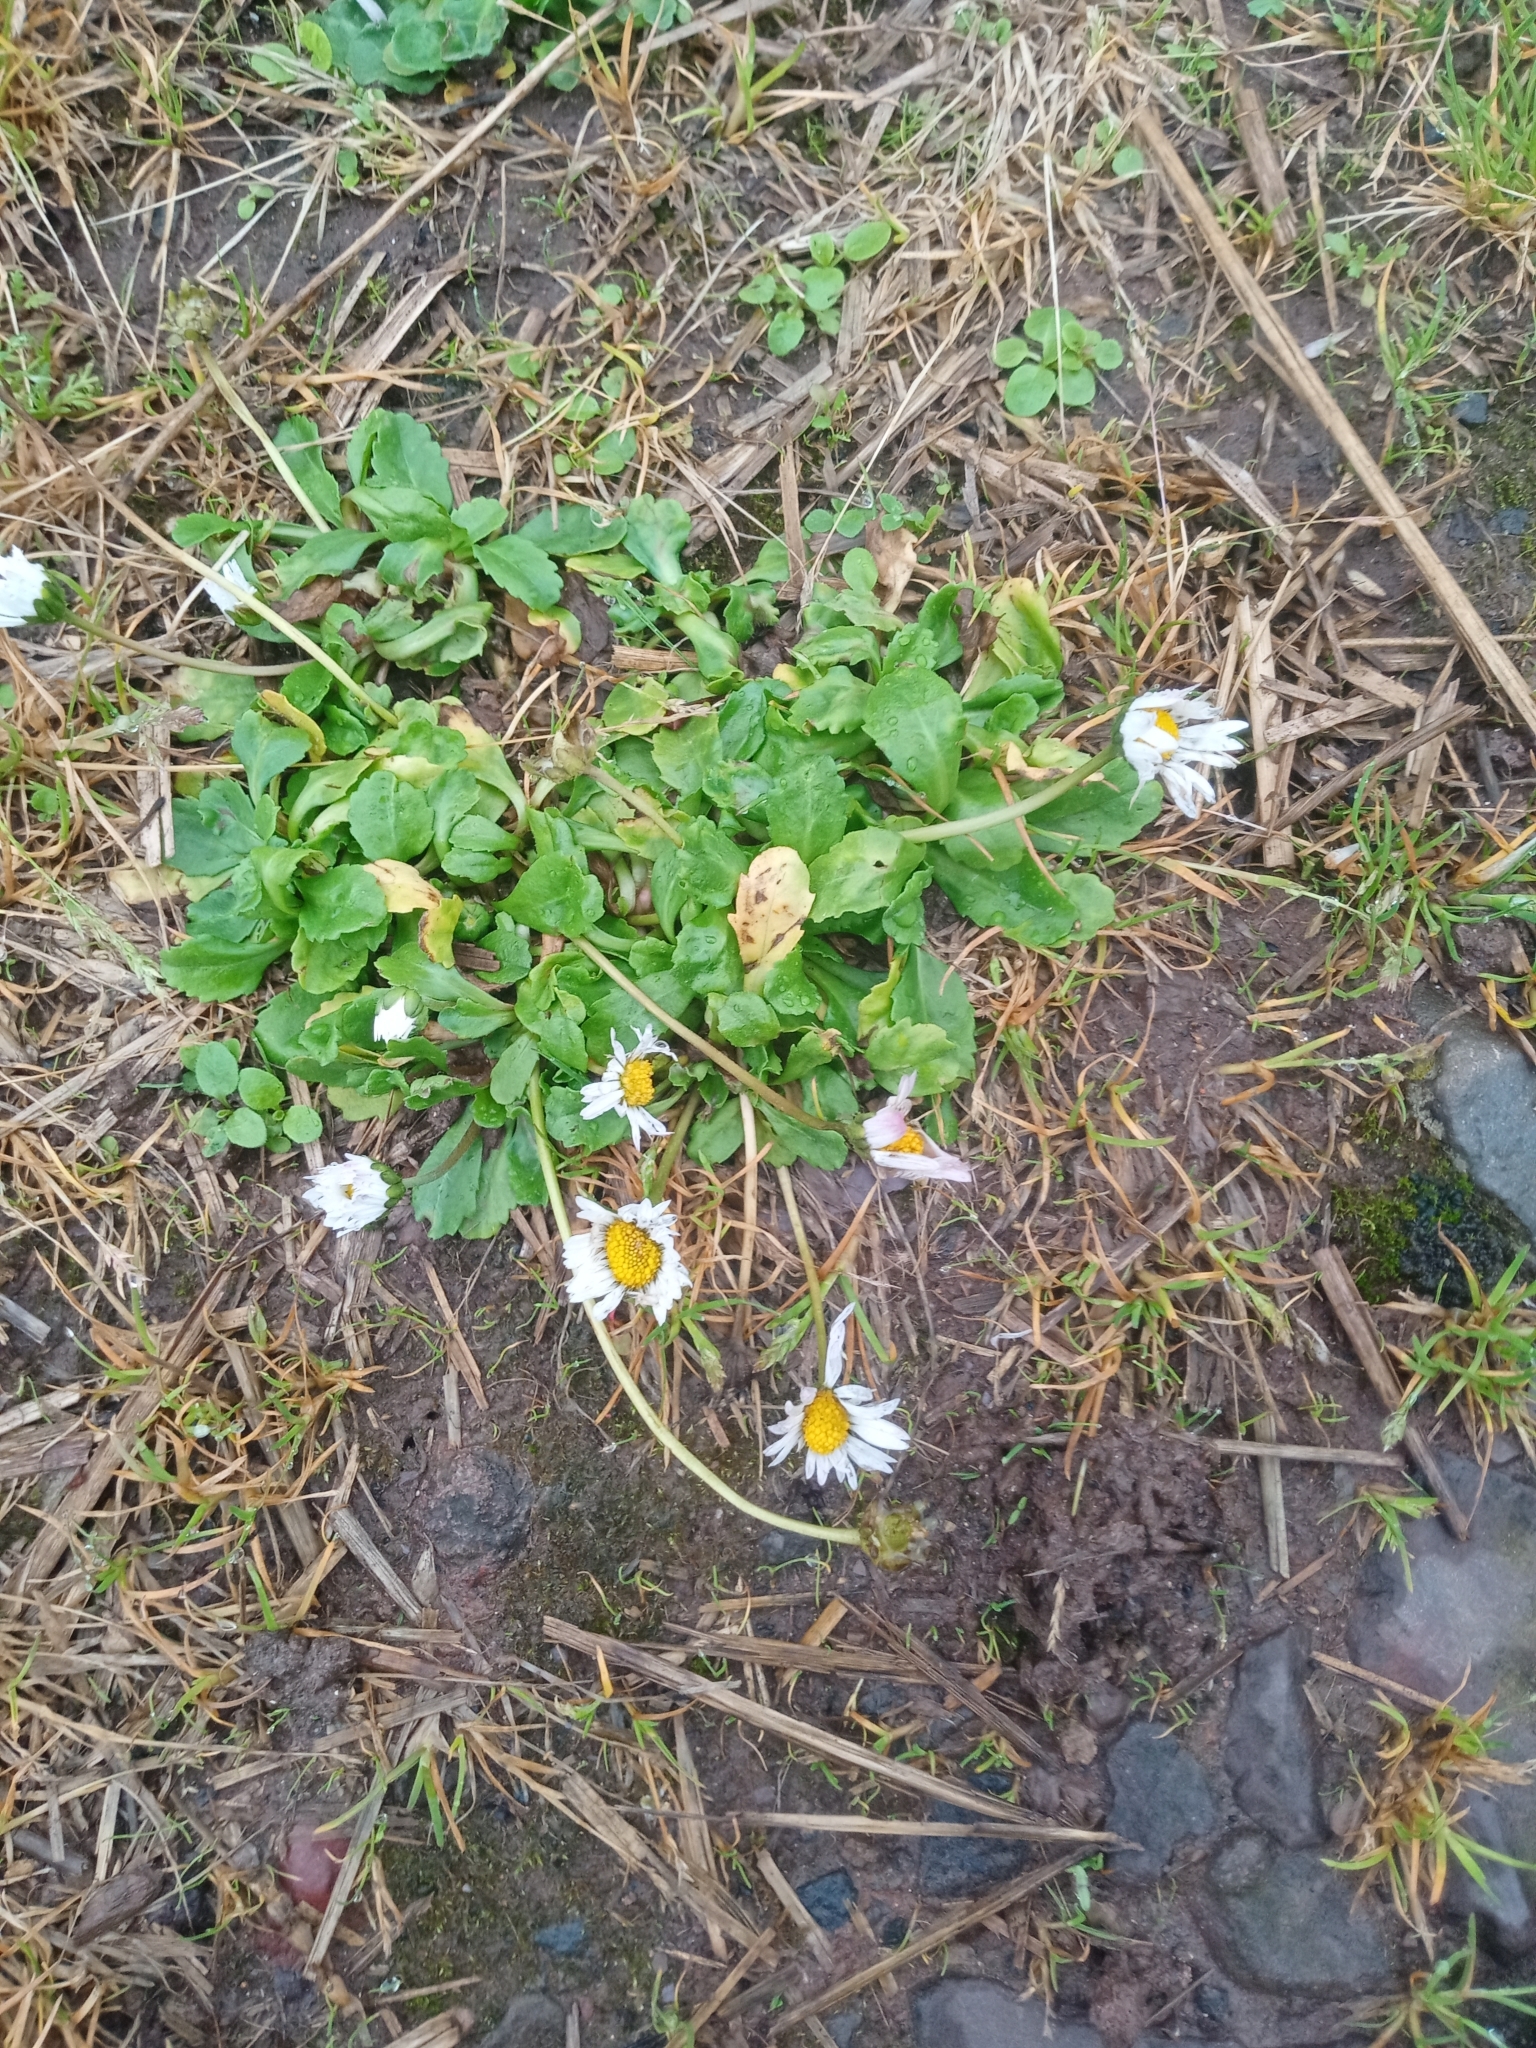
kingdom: Plantae
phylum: Tracheophyta
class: Magnoliopsida
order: Asterales
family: Asteraceae
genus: Bellis
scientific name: Bellis perennis
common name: Lawndaisy
